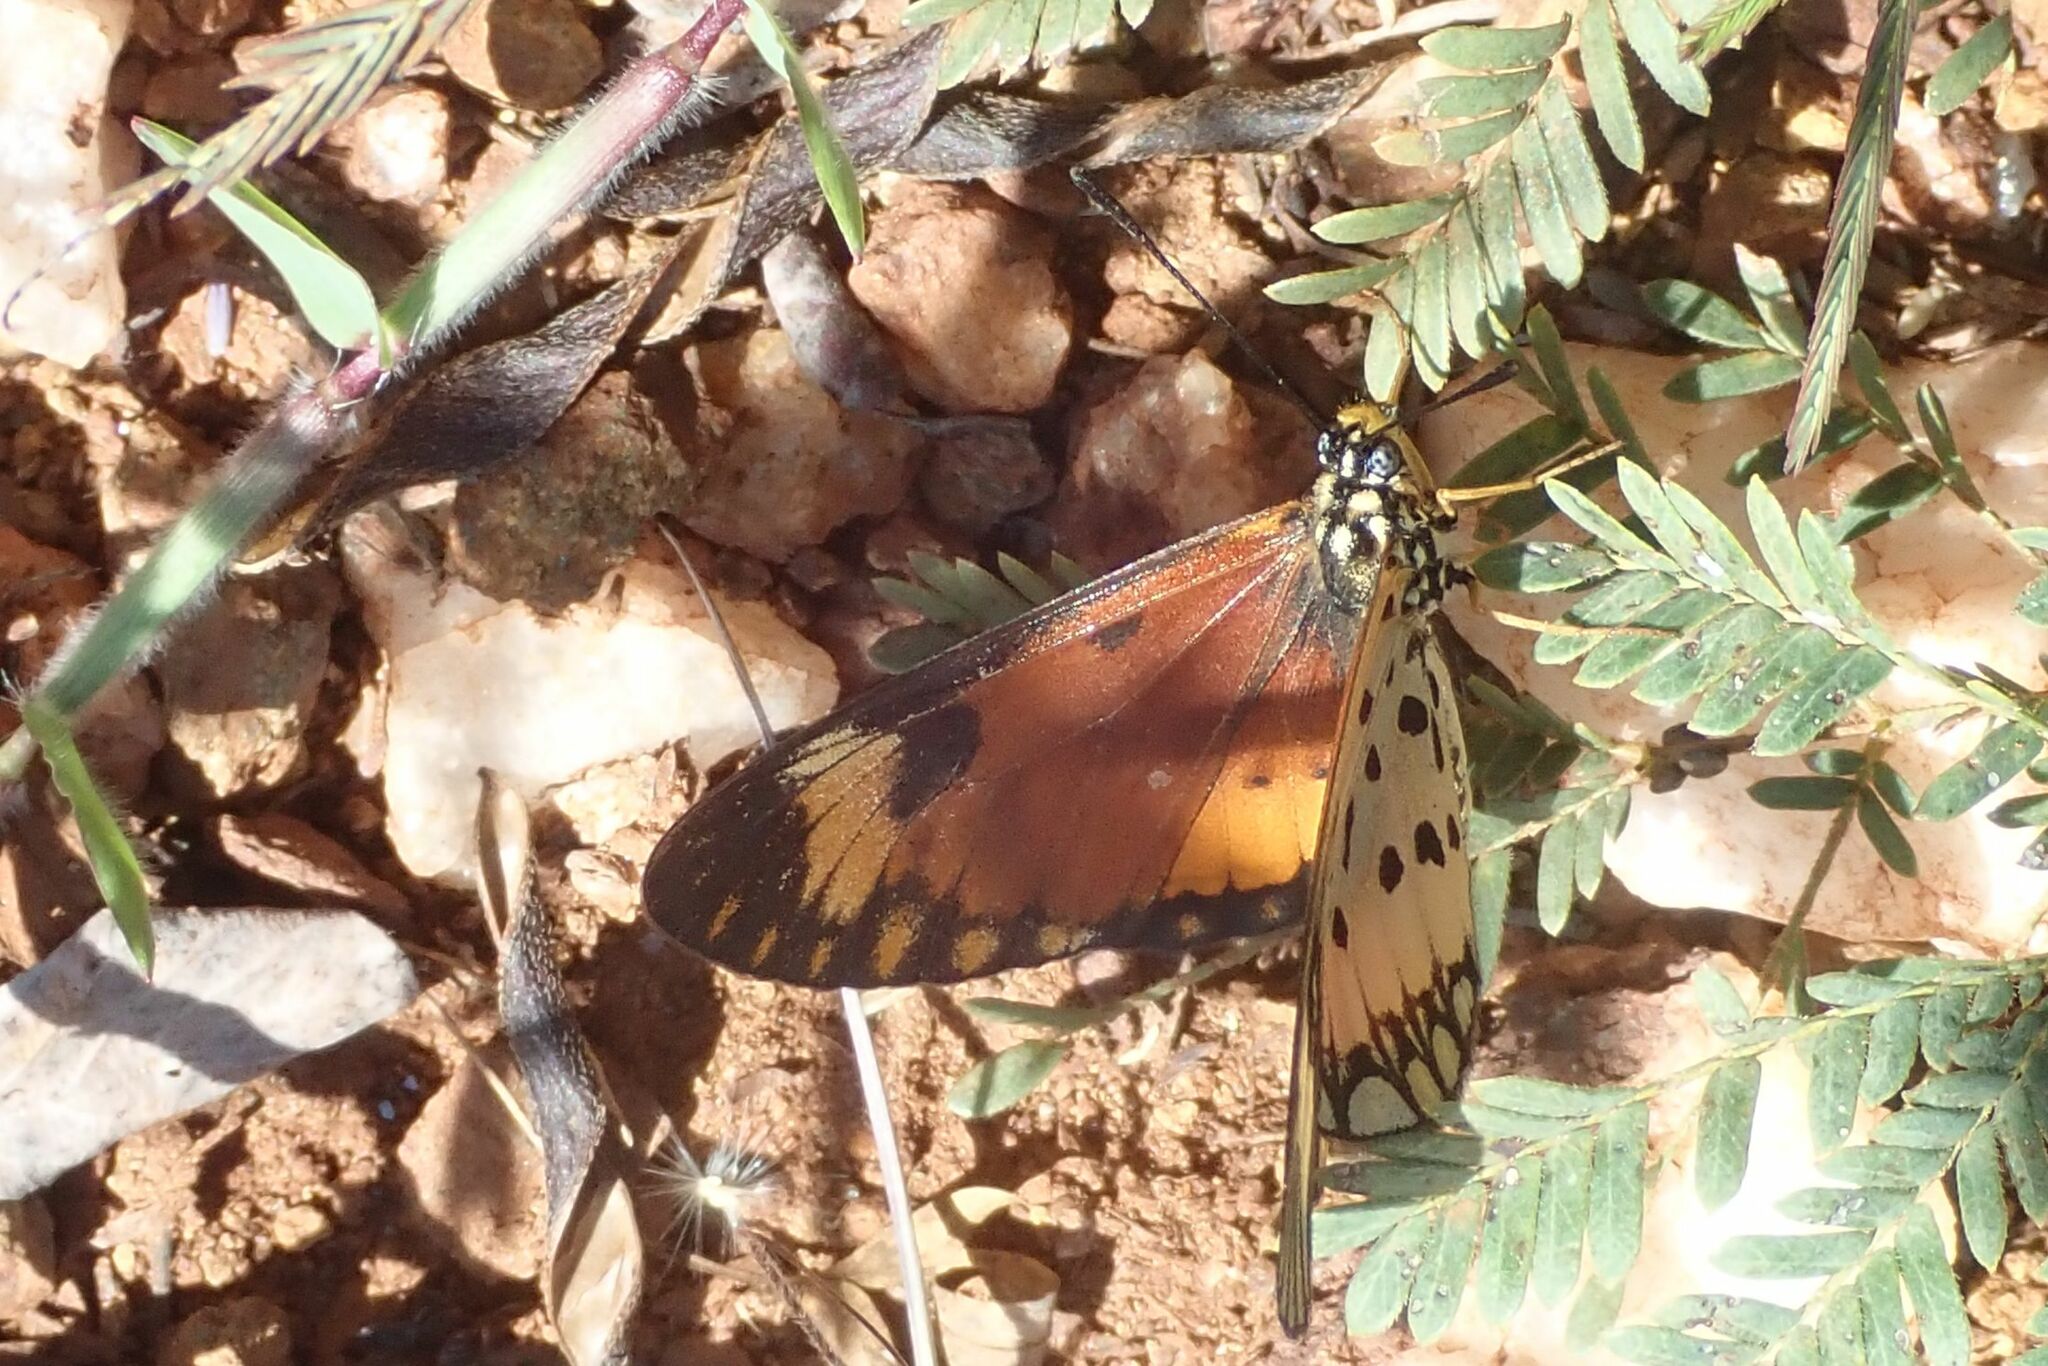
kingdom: Animalia
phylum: Arthropoda
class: Insecta
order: Lepidoptera
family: Nymphalidae
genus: Acraea
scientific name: Acraea Telchinia serena
